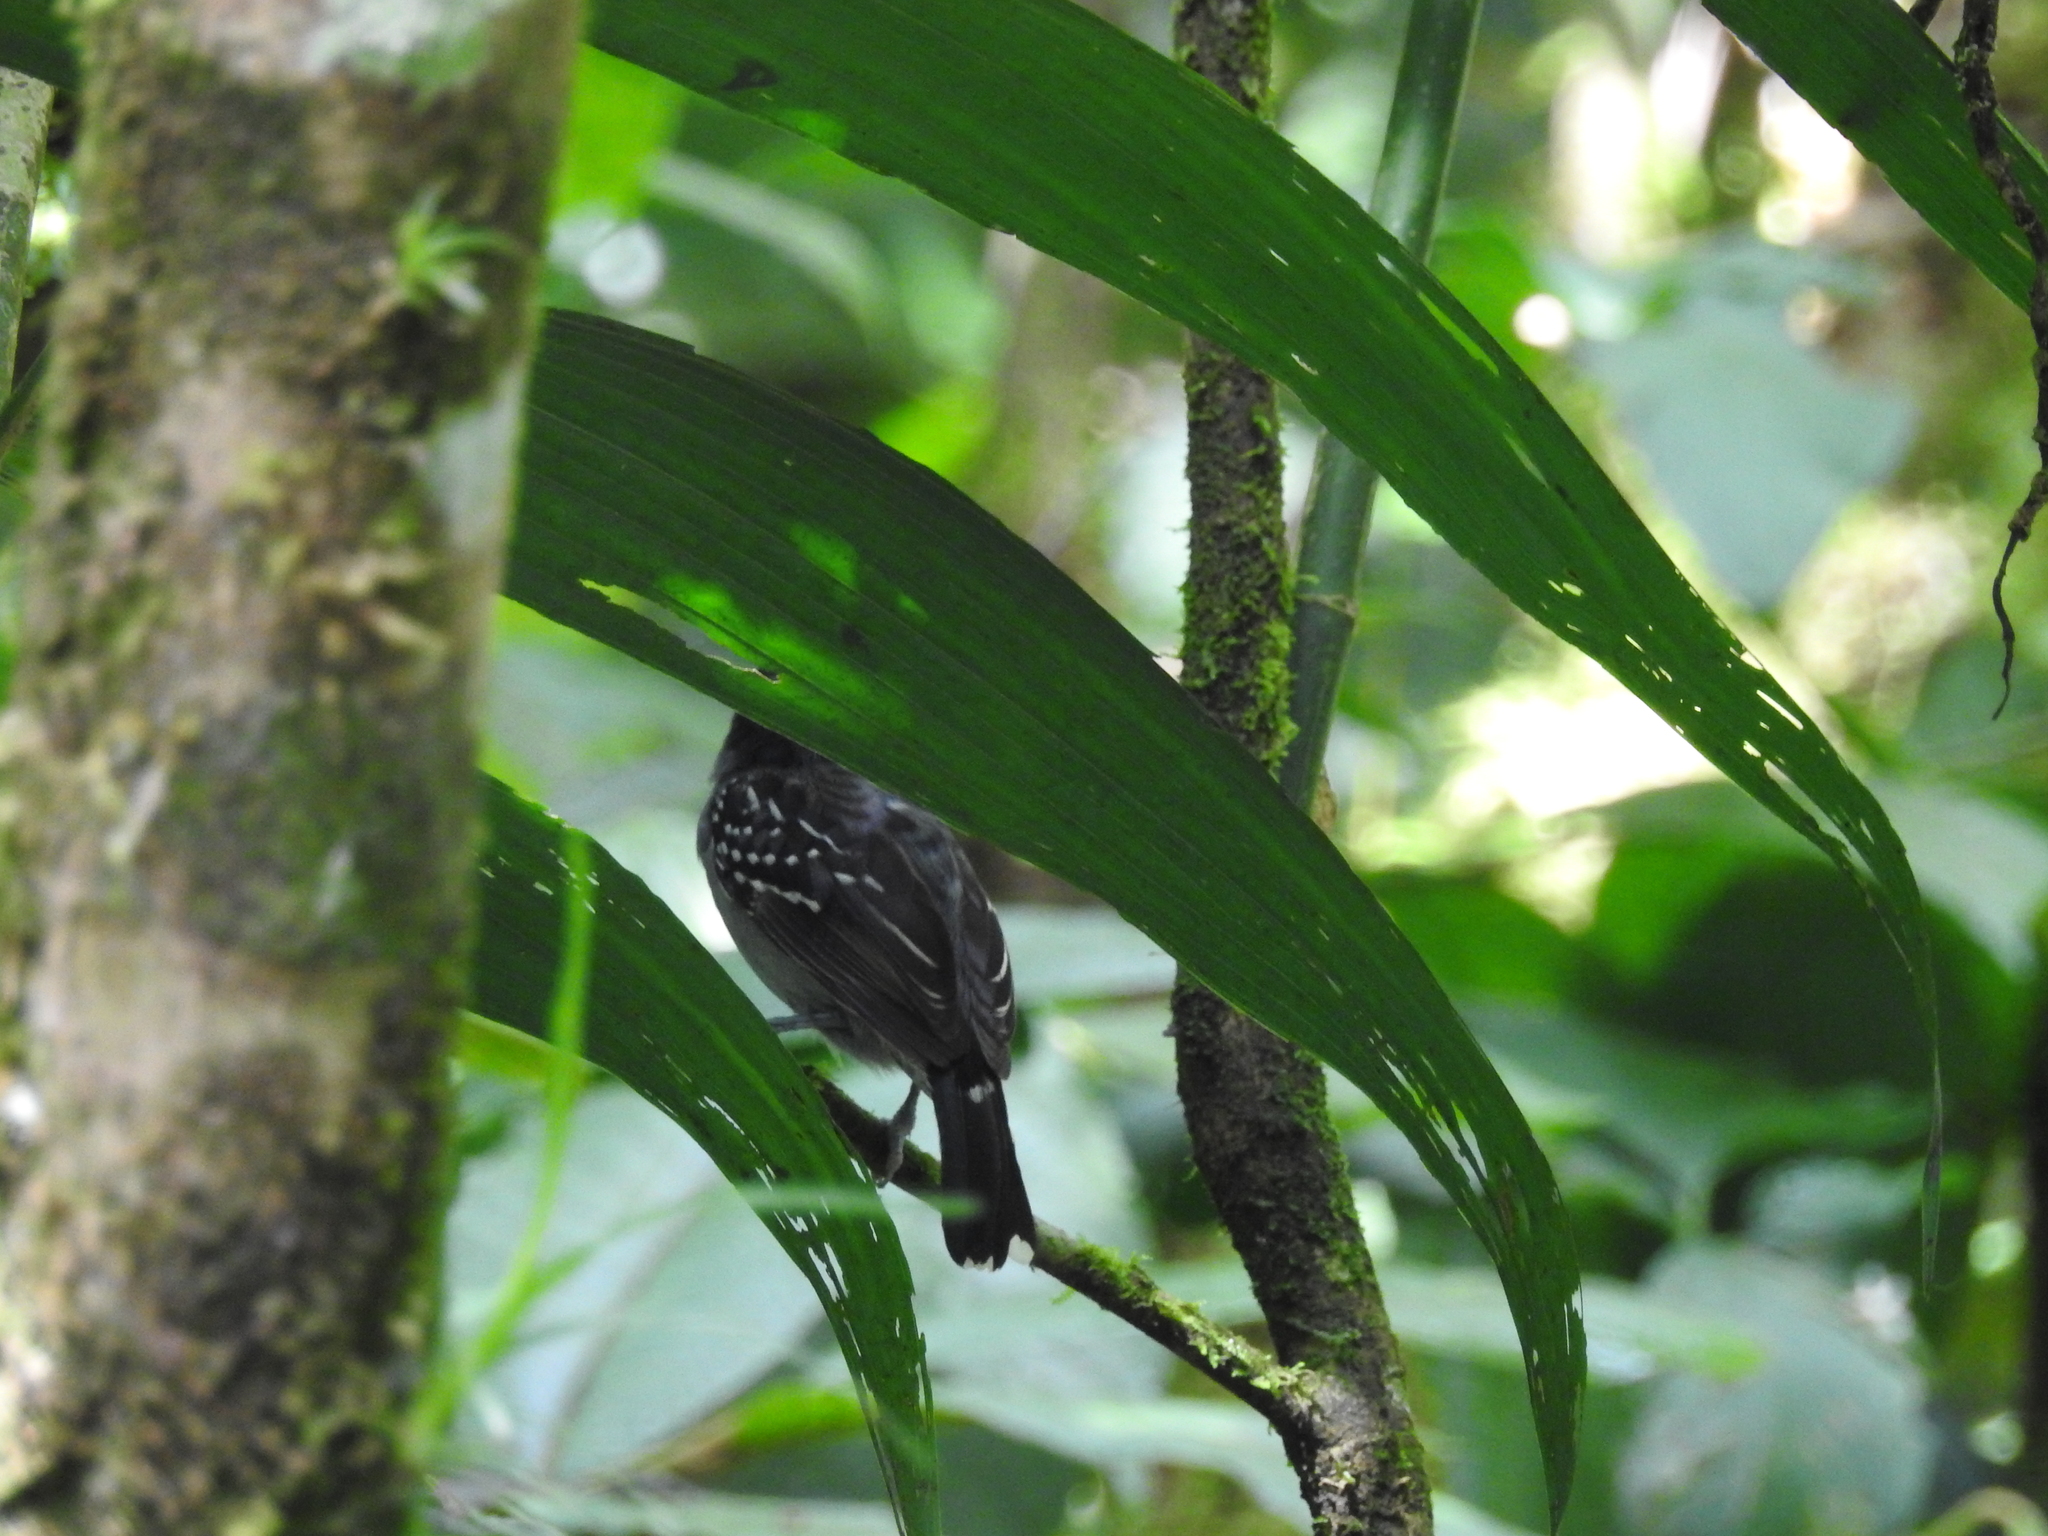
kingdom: Animalia
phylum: Chordata
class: Aves
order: Passeriformes
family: Thamnophilidae
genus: Thamnophilus
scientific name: Thamnophilus atrinucha
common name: Black-crowned antshrike
